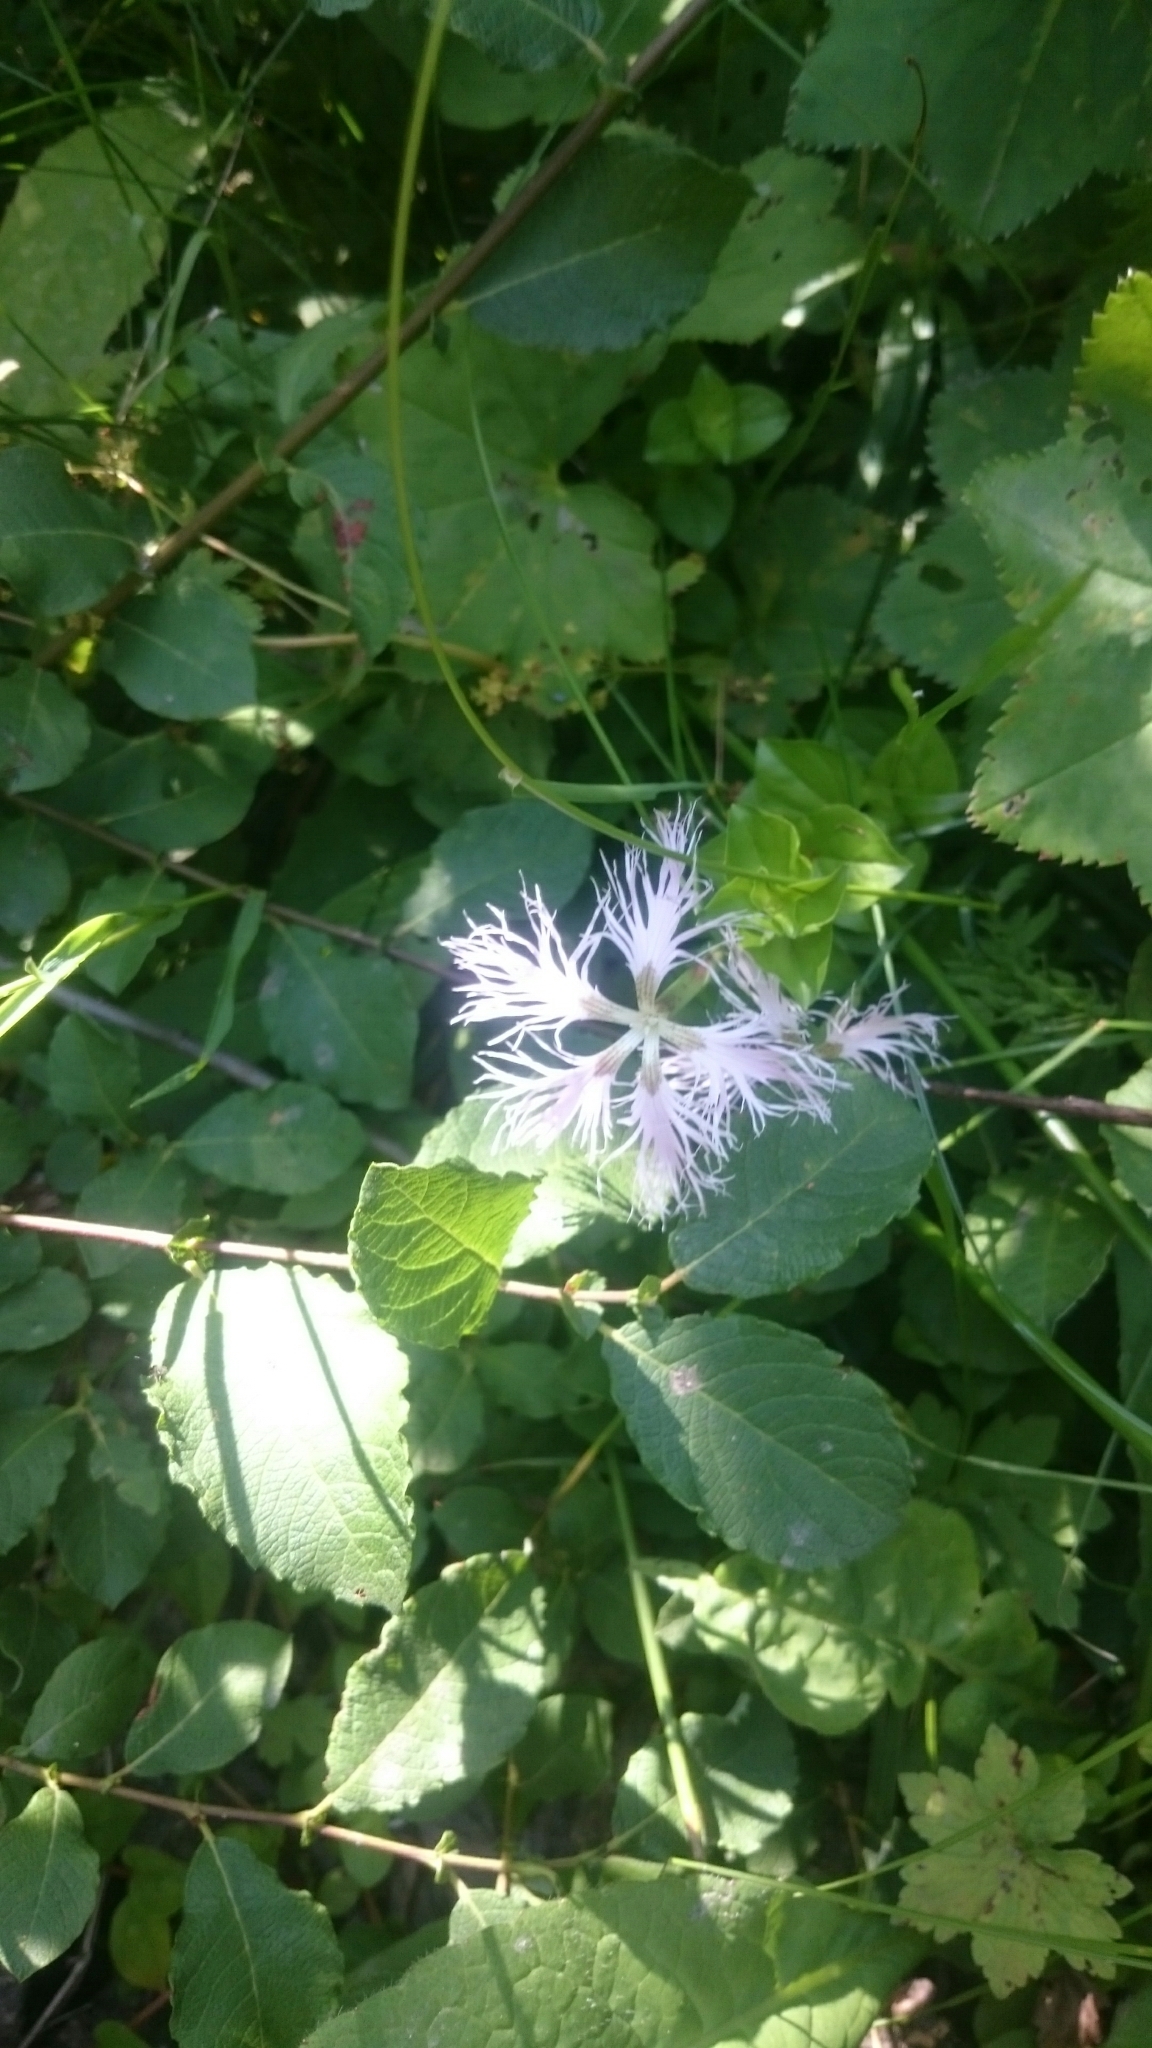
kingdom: Plantae
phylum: Tracheophyta
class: Magnoliopsida
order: Caryophyllales
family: Caryophyllaceae
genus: Dianthus
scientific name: Dianthus superbus
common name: Fringed pink
